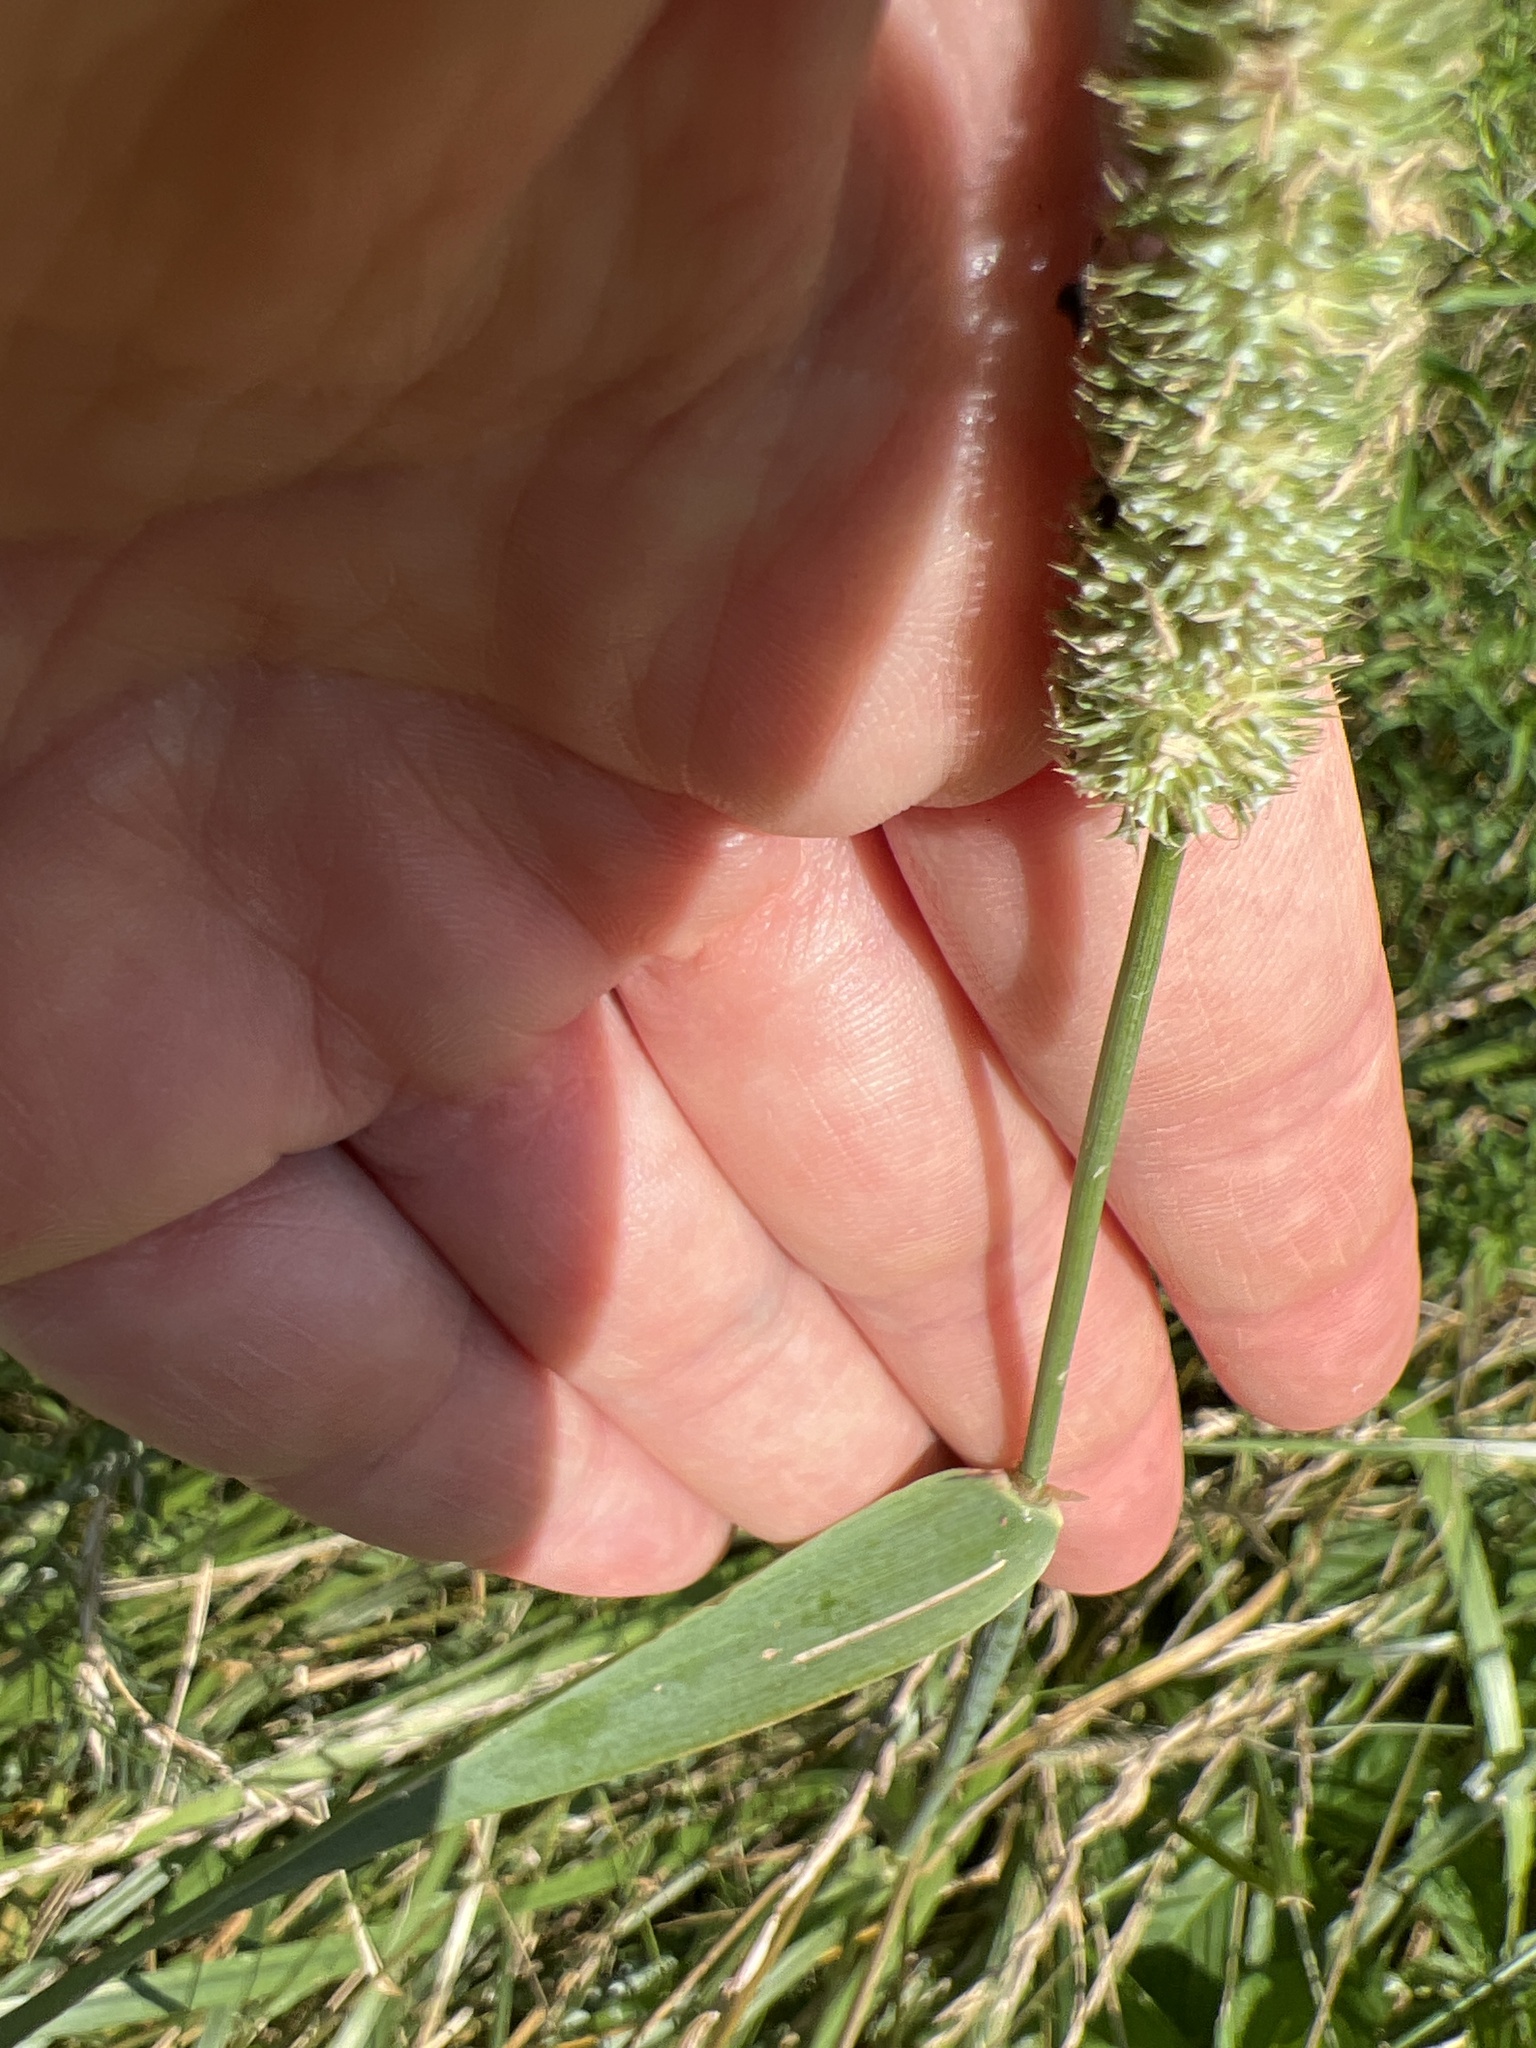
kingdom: Plantae
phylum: Tracheophyta
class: Liliopsida
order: Poales
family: Poaceae
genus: Phleum
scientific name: Phleum pratense
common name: Timothy grass
